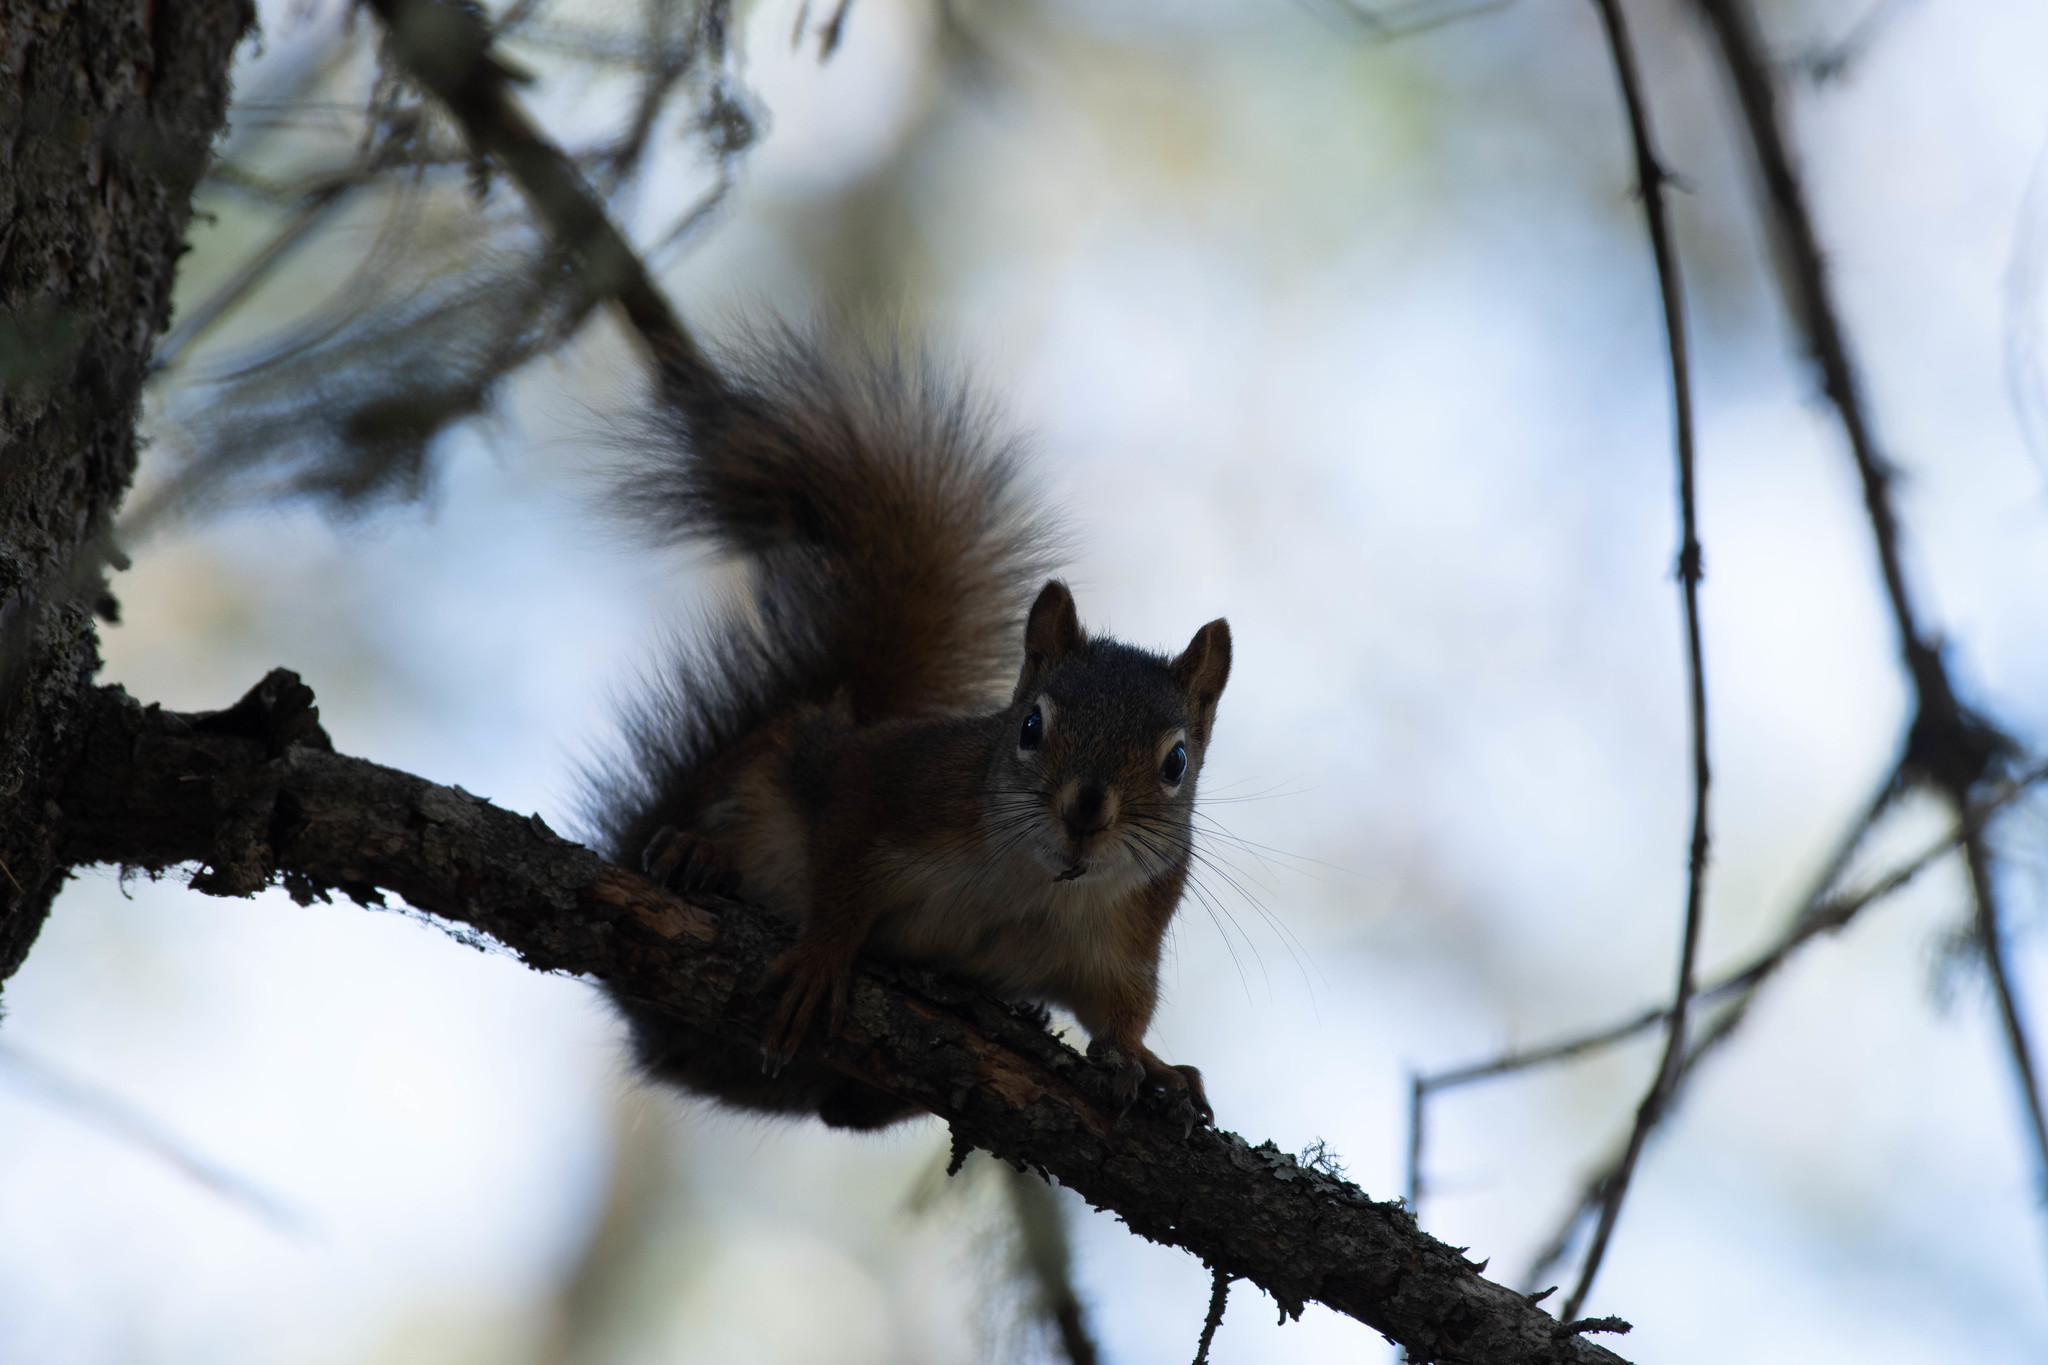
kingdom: Animalia
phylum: Chordata
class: Mammalia
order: Rodentia
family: Sciuridae
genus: Tamiasciurus
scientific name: Tamiasciurus hudsonicus
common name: Red squirrel
